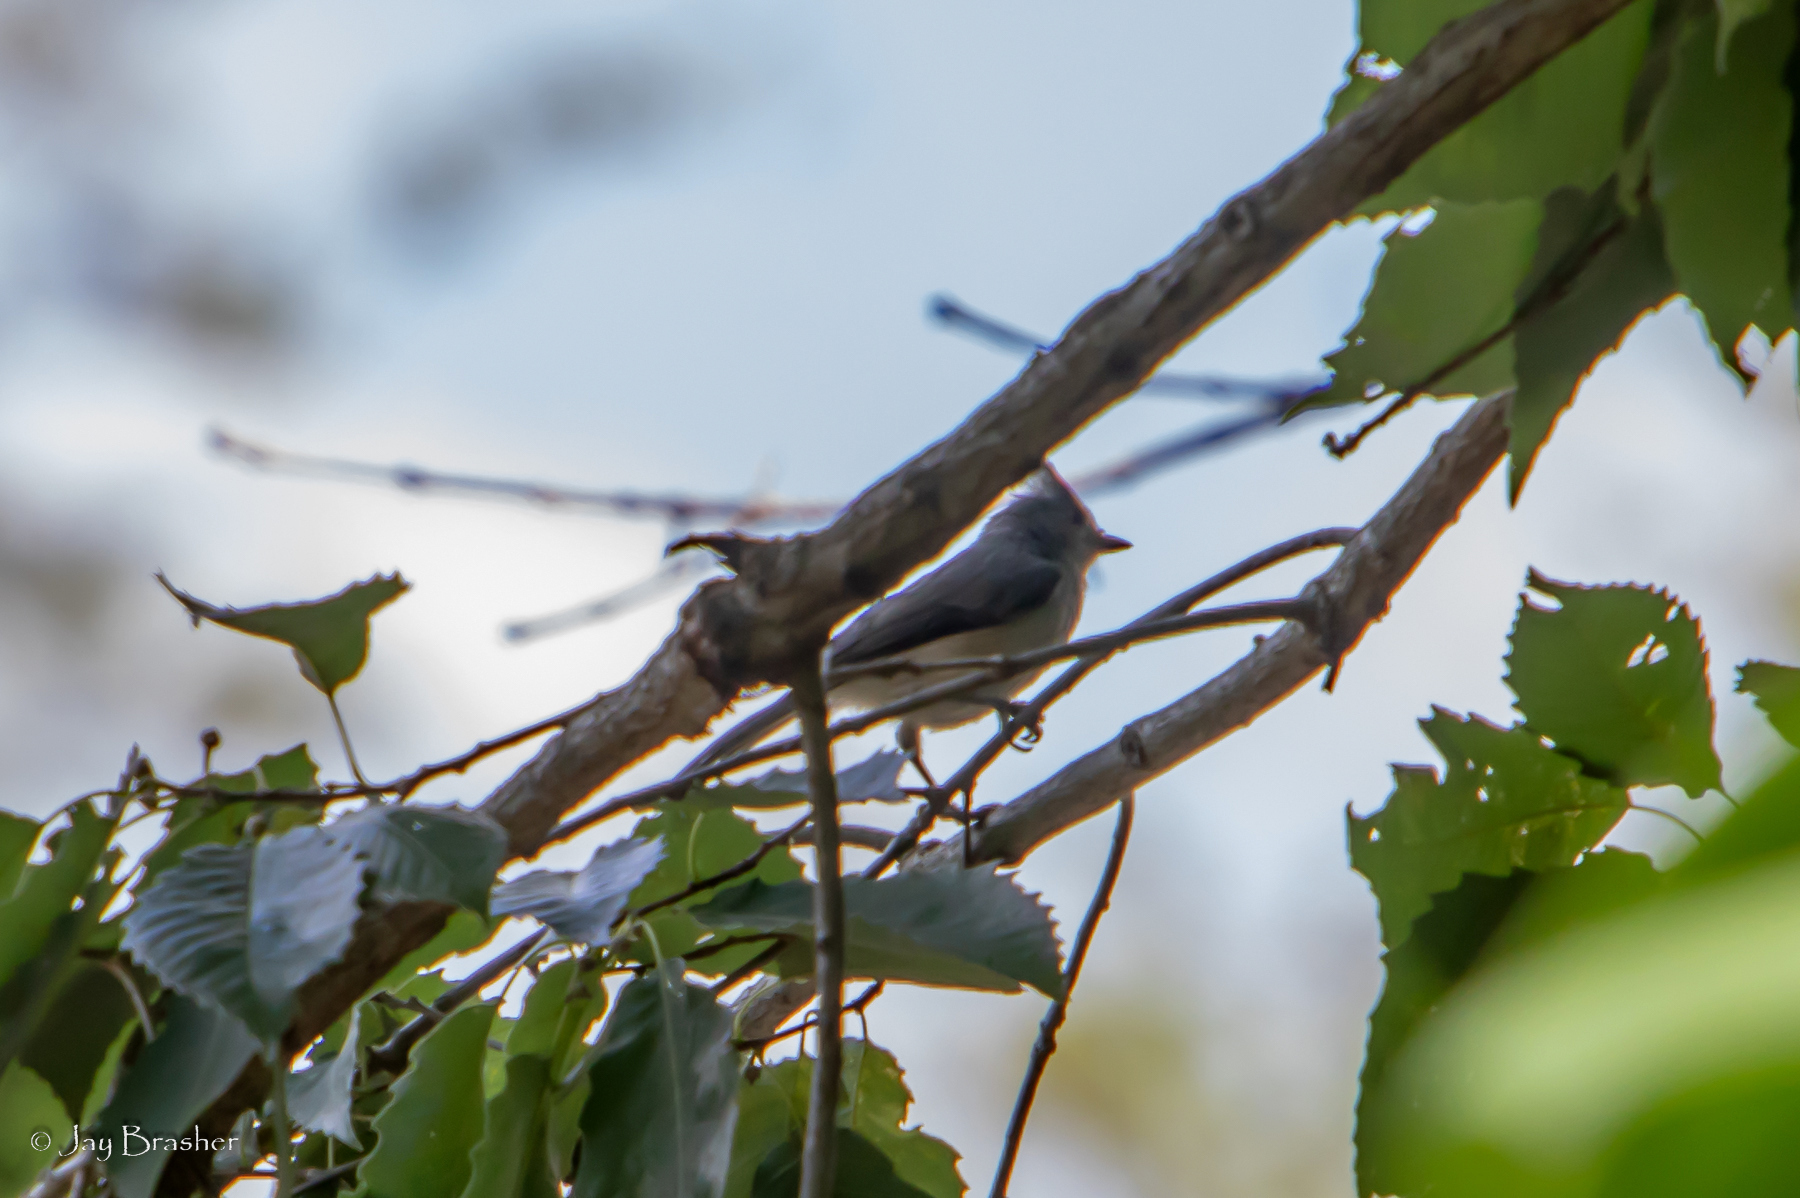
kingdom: Animalia
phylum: Chordata
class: Aves
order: Passeriformes
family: Paridae
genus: Baeolophus
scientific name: Baeolophus bicolor
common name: Tufted titmouse
